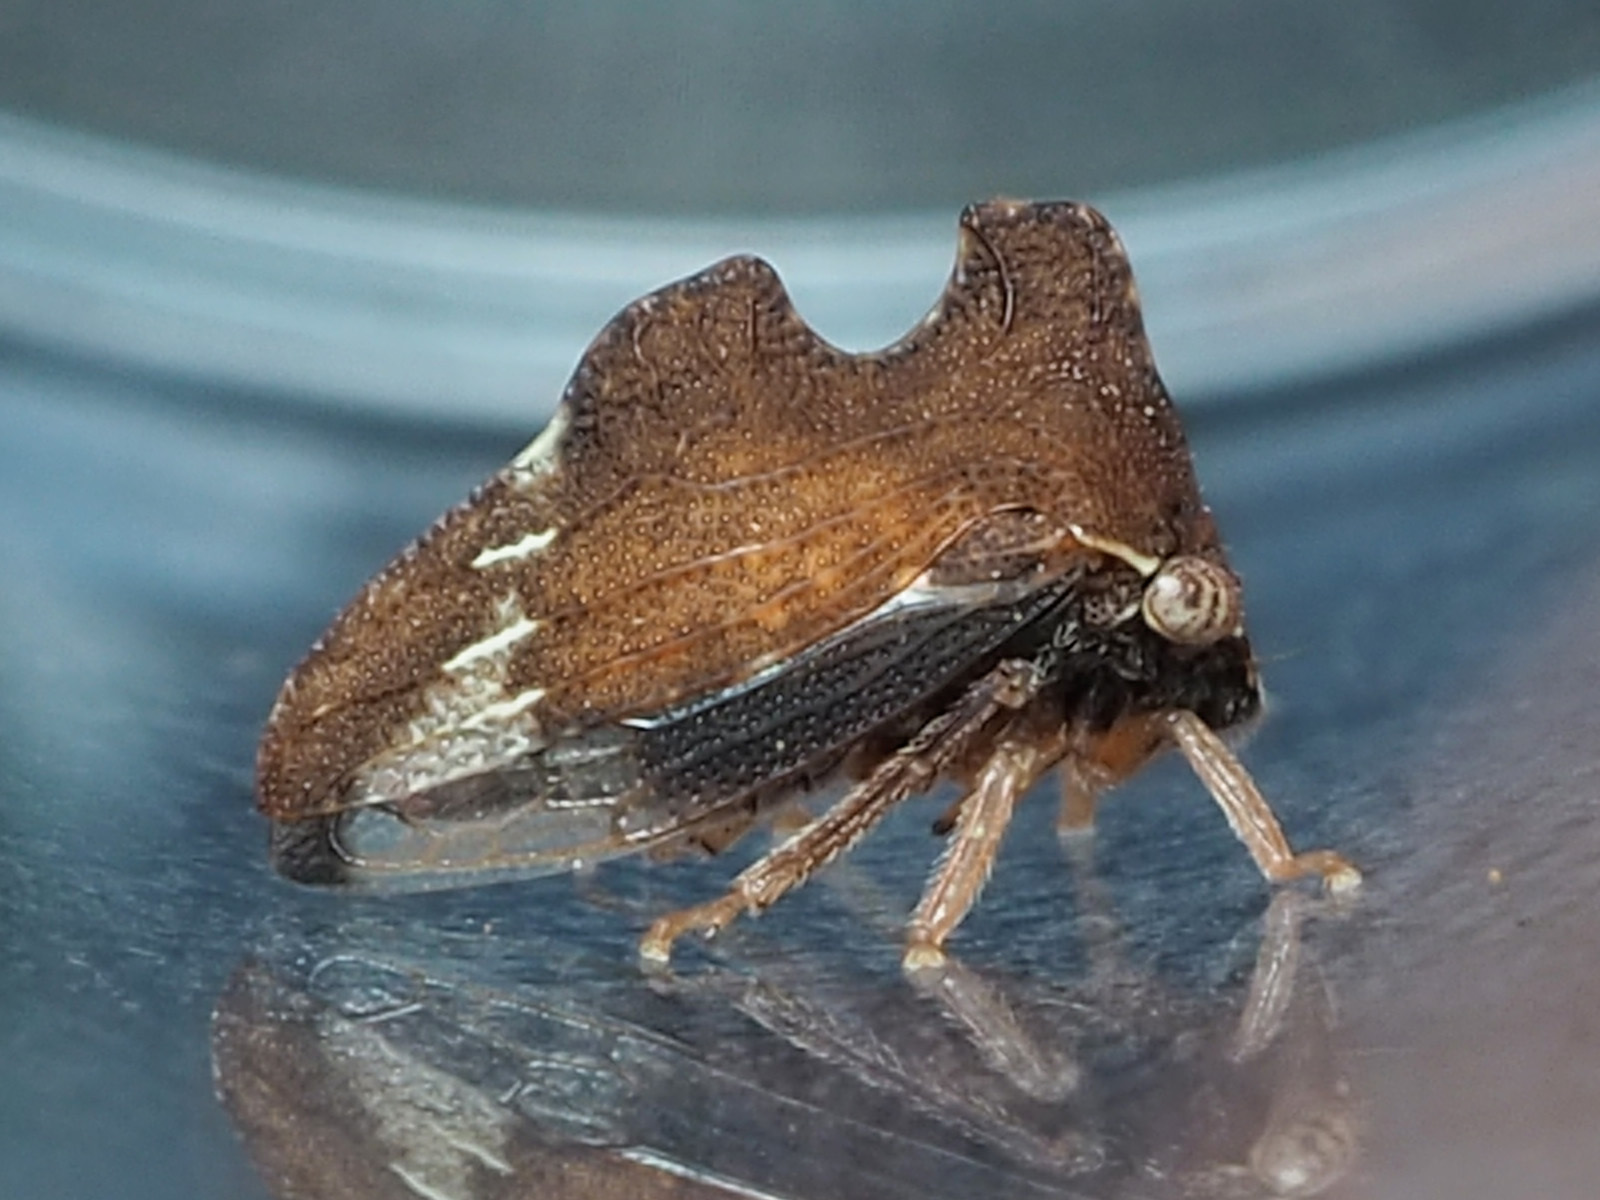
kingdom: Animalia
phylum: Arthropoda
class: Insecta
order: Hemiptera
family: Membracidae
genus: Entylia
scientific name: Entylia carinata
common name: Keeled treehopper
